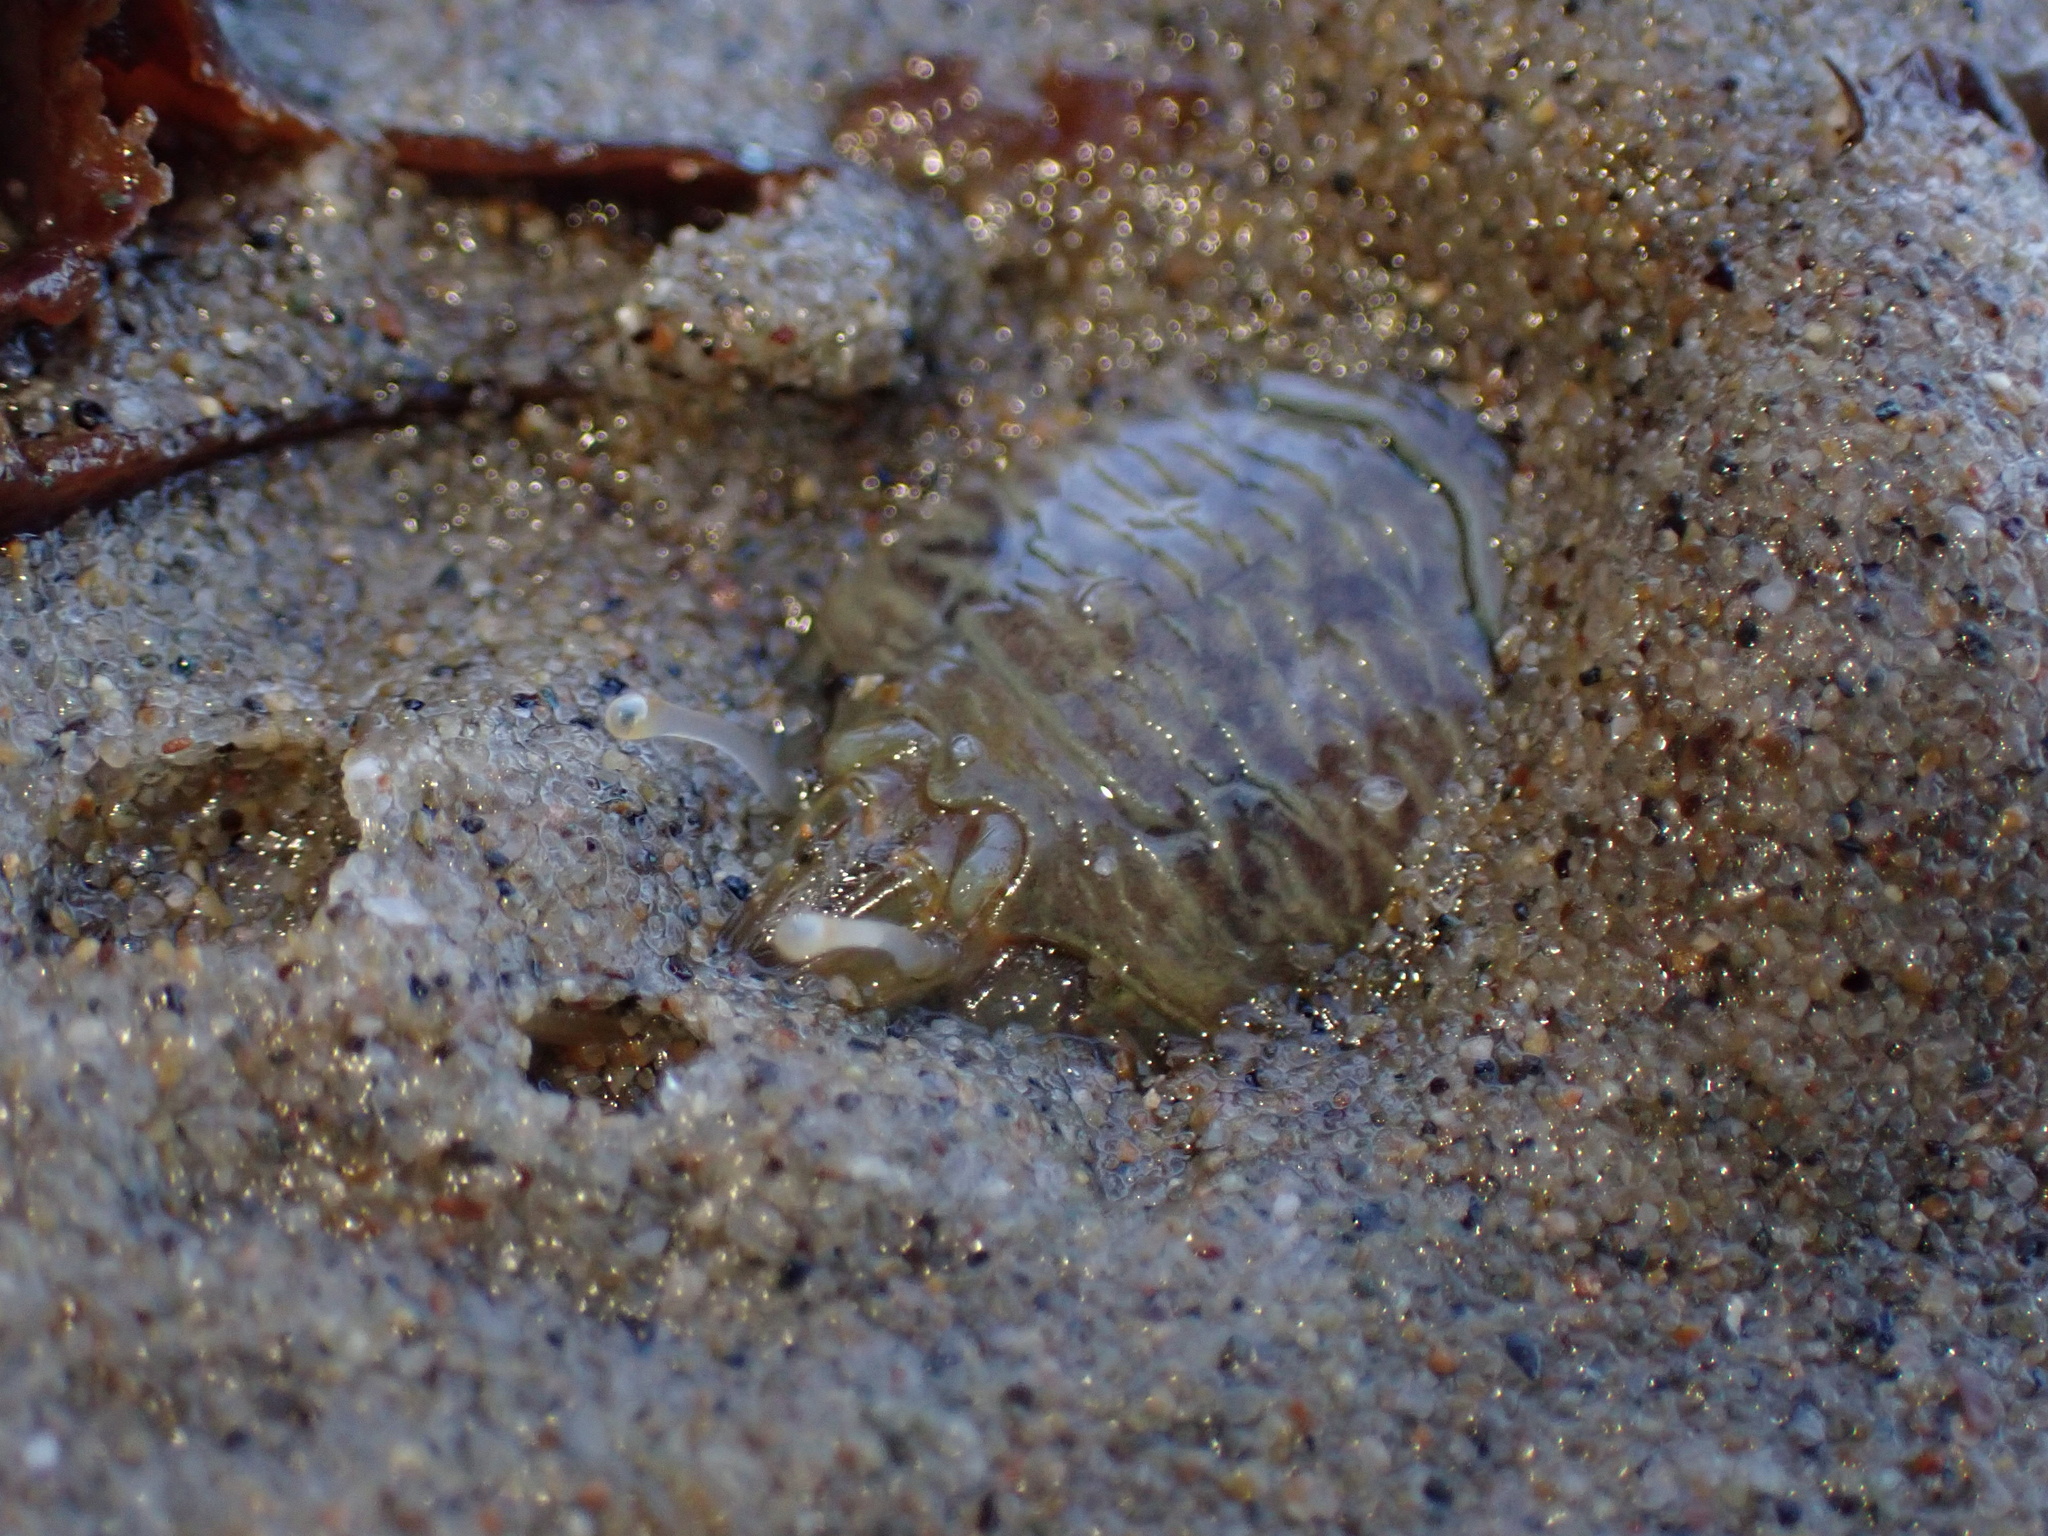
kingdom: Animalia
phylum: Arthropoda
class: Malacostraca
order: Decapoda
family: Hippidae
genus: Emerita
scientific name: Emerita analoga
